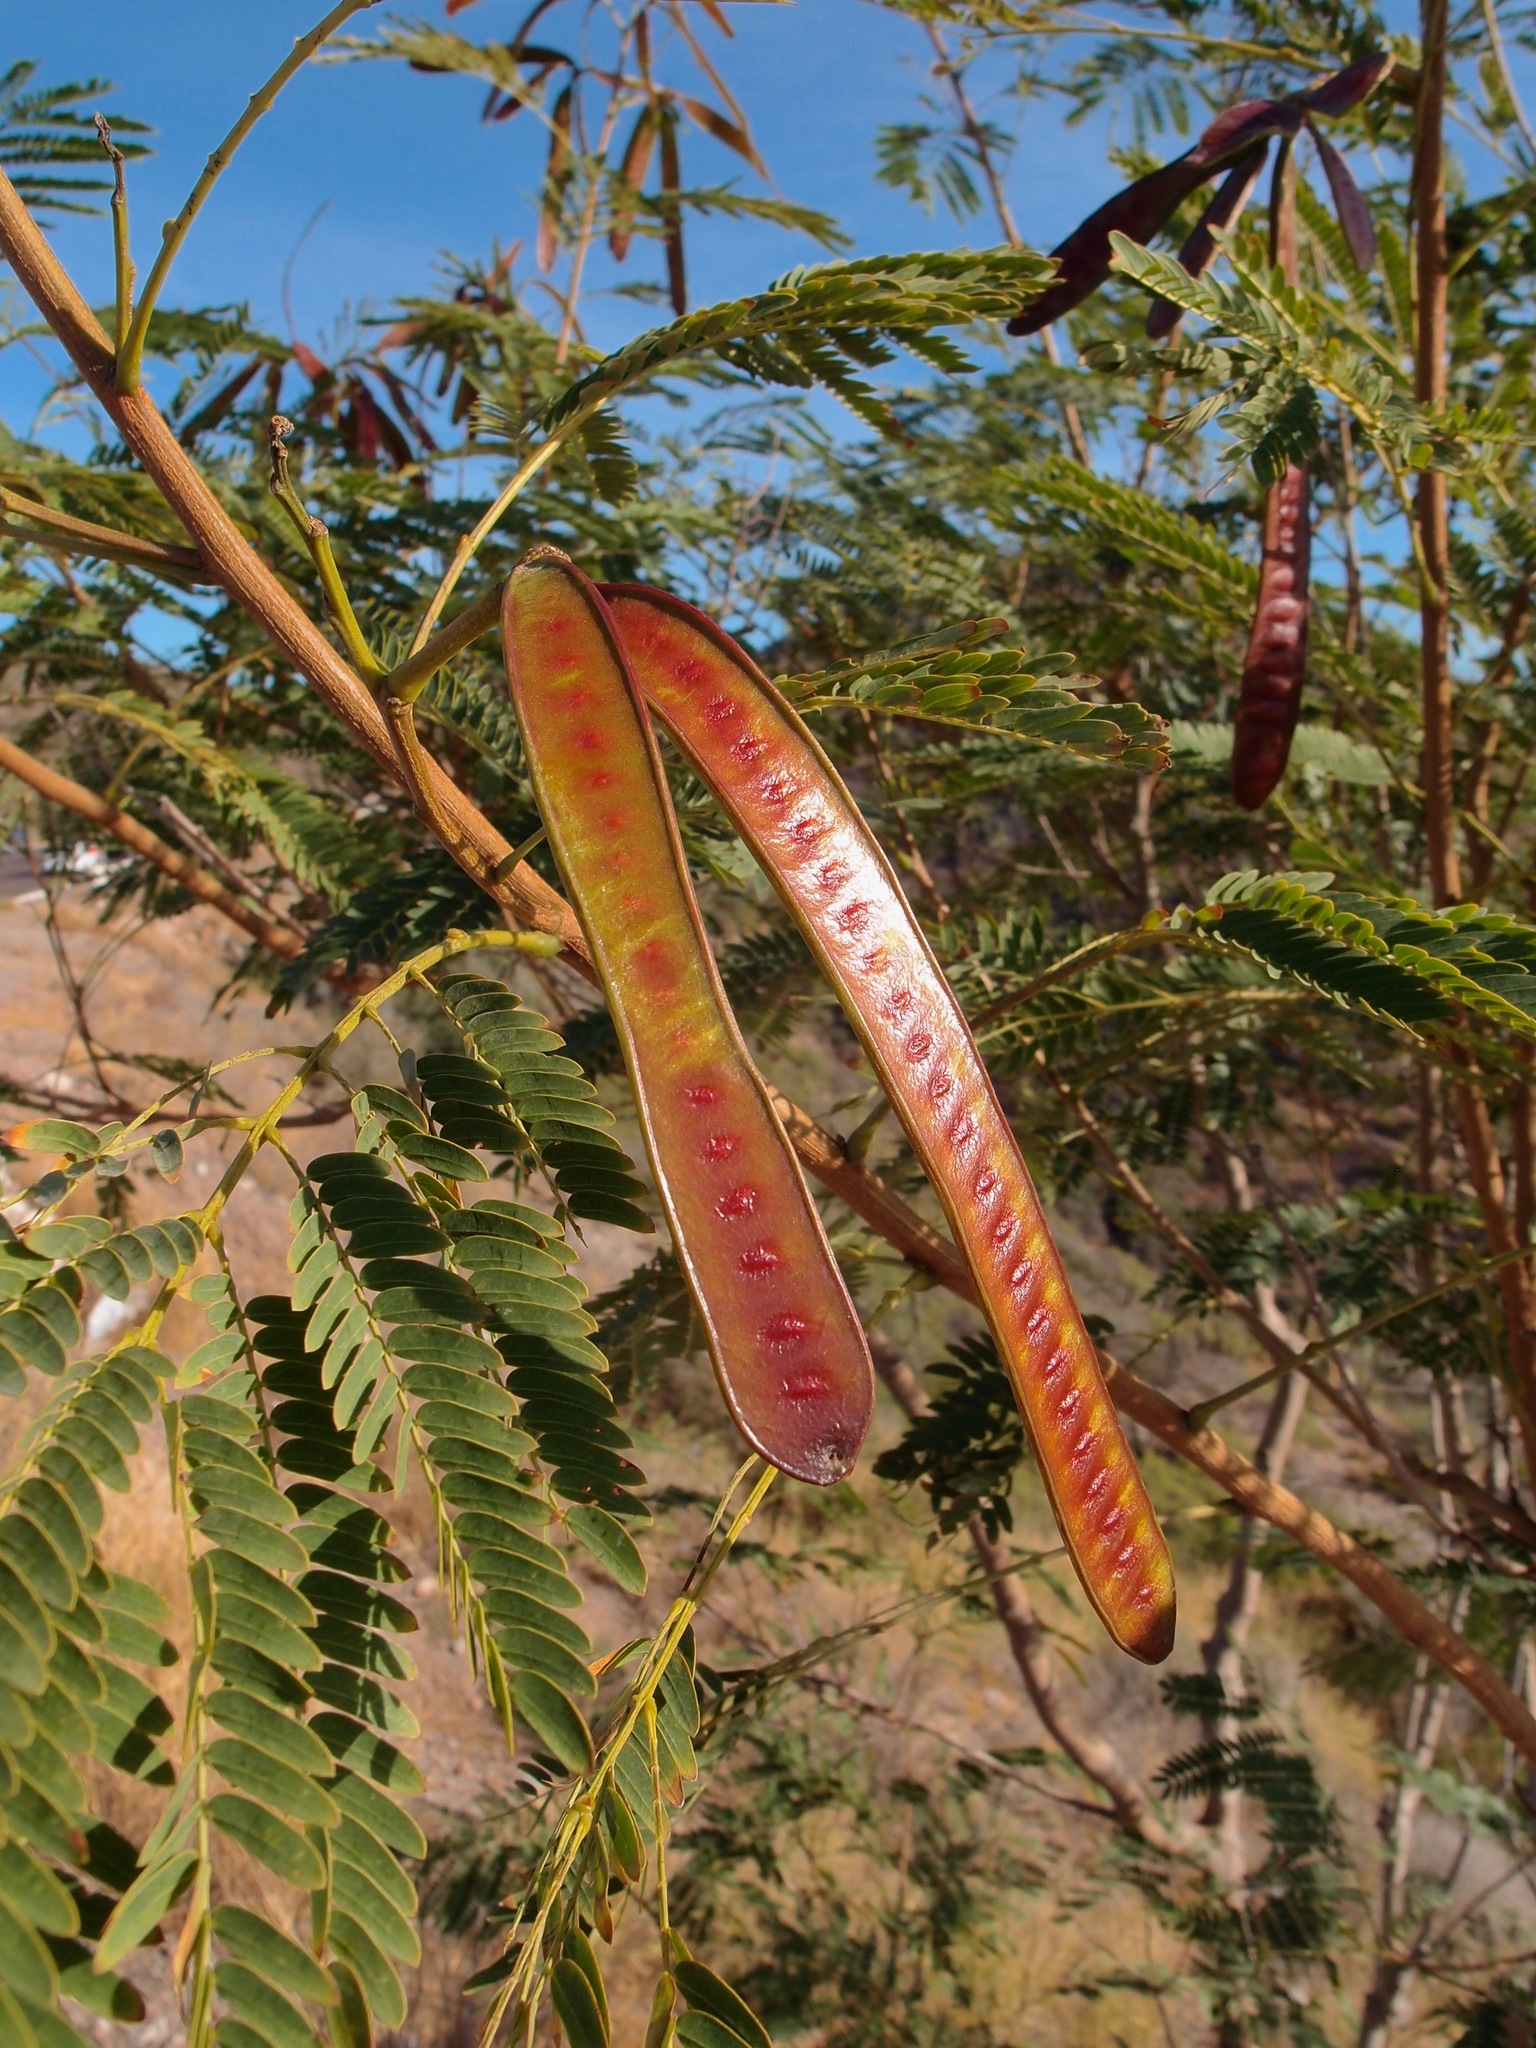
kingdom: Plantae
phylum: Tracheophyta
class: Magnoliopsida
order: Fabales
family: Fabaceae
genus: Leucaena
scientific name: Leucaena leucocephala
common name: White leadtree
